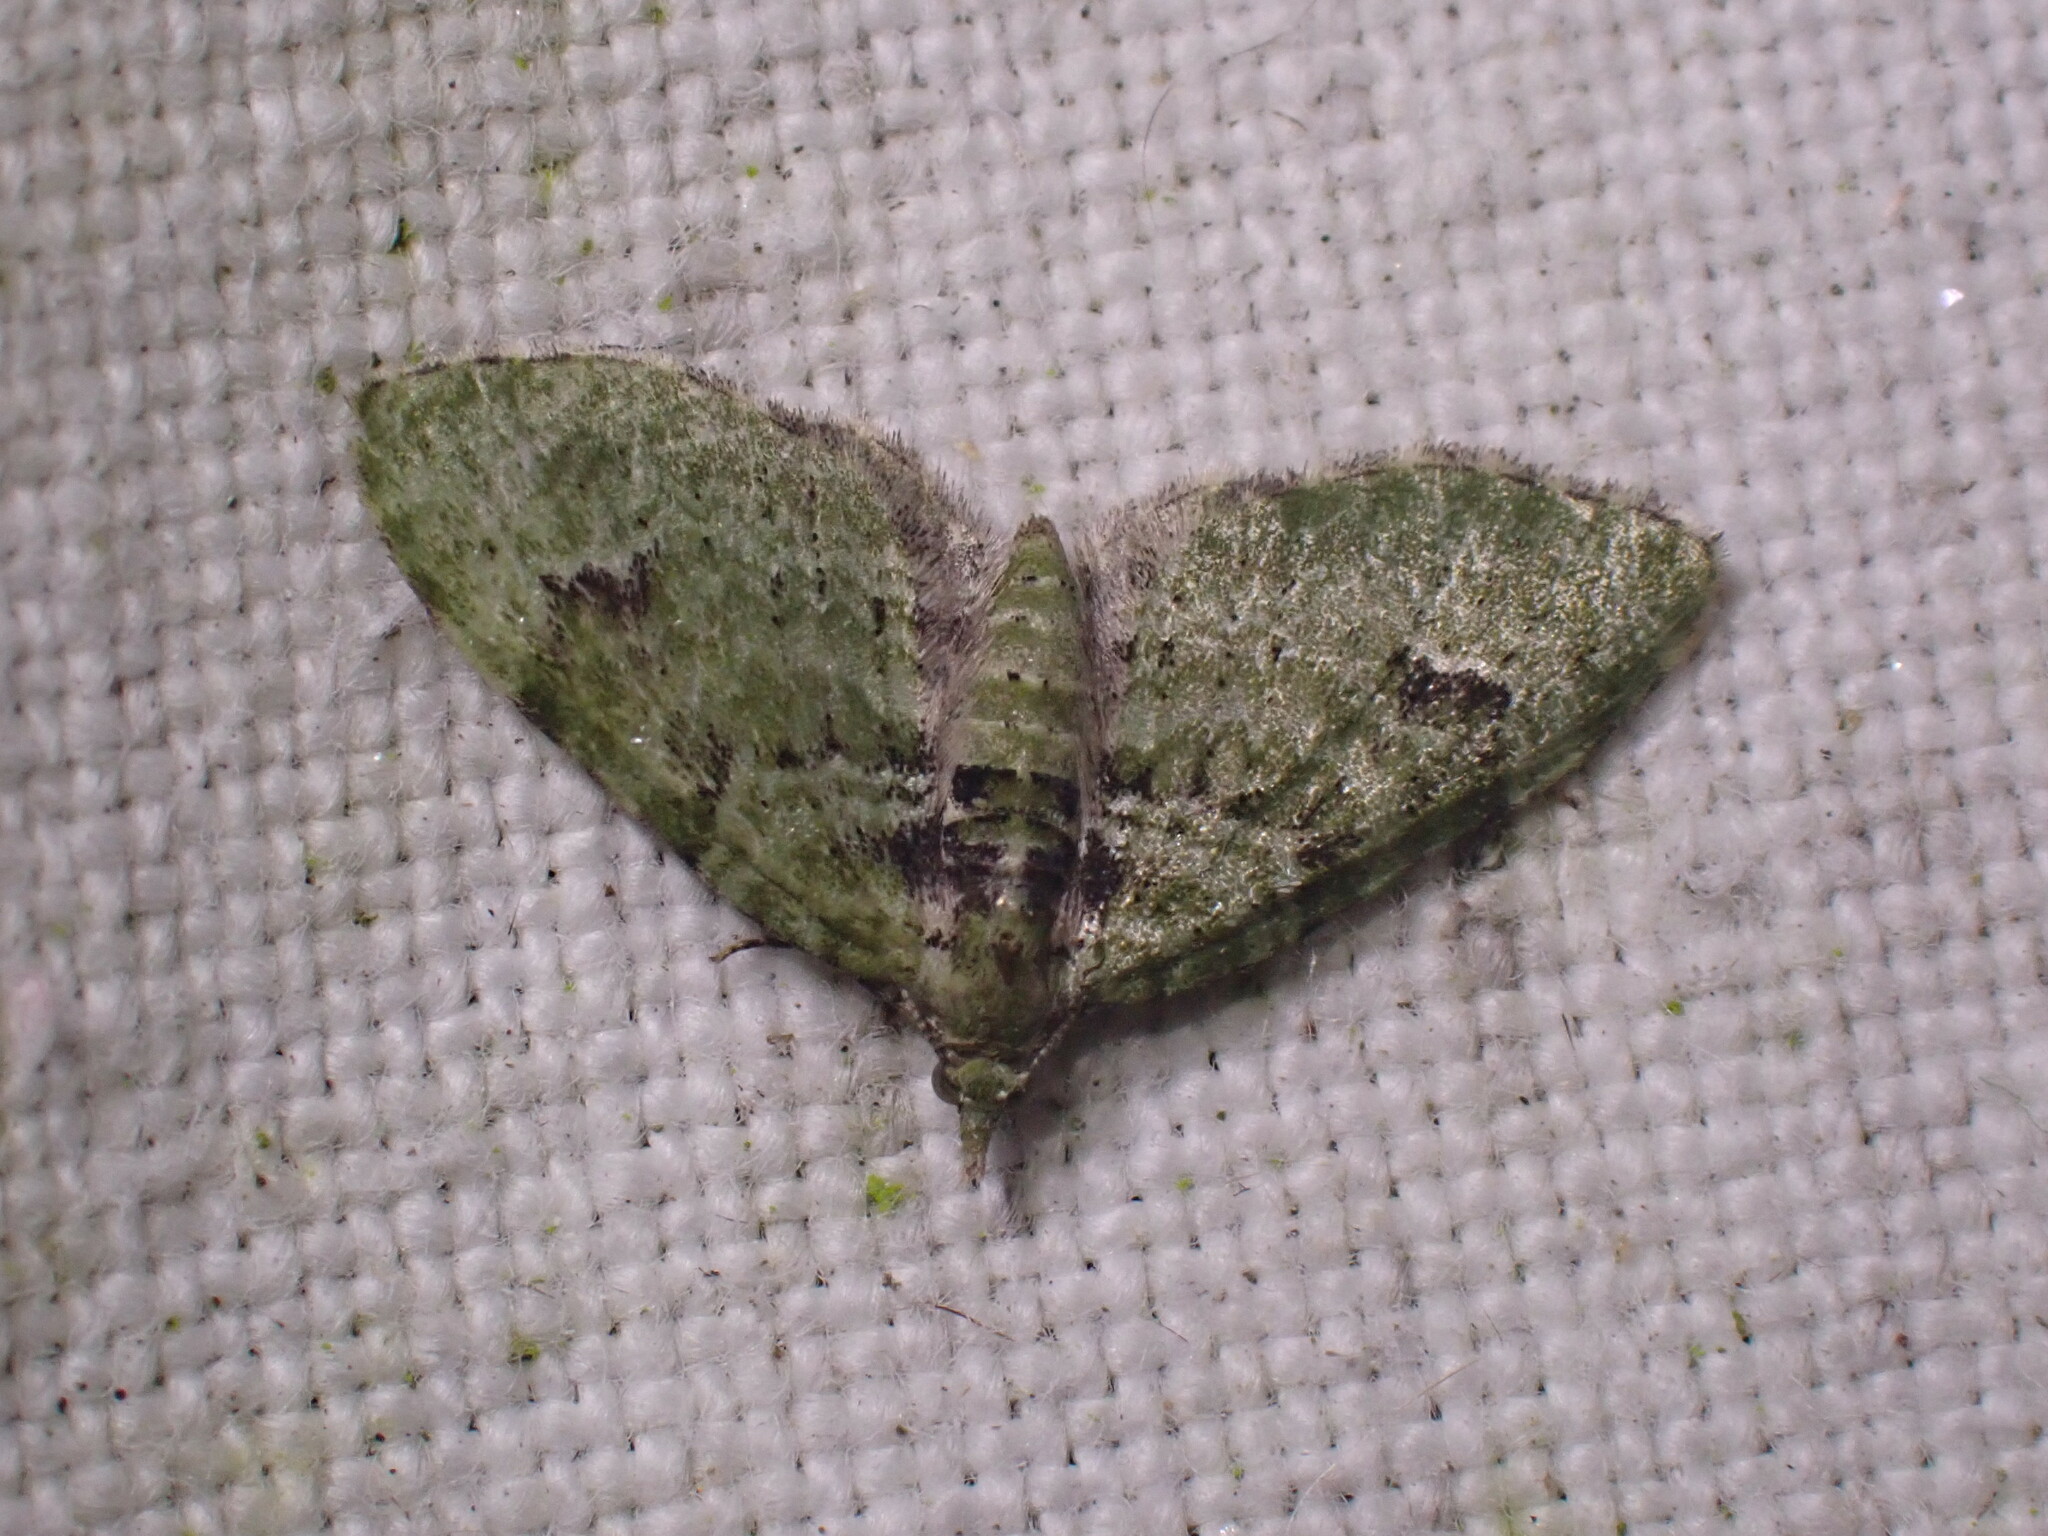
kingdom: Animalia
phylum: Arthropoda
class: Insecta
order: Lepidoptera
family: Geometridae
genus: Chloroclystis
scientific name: Chloroclystis v-ata
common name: V-pug
